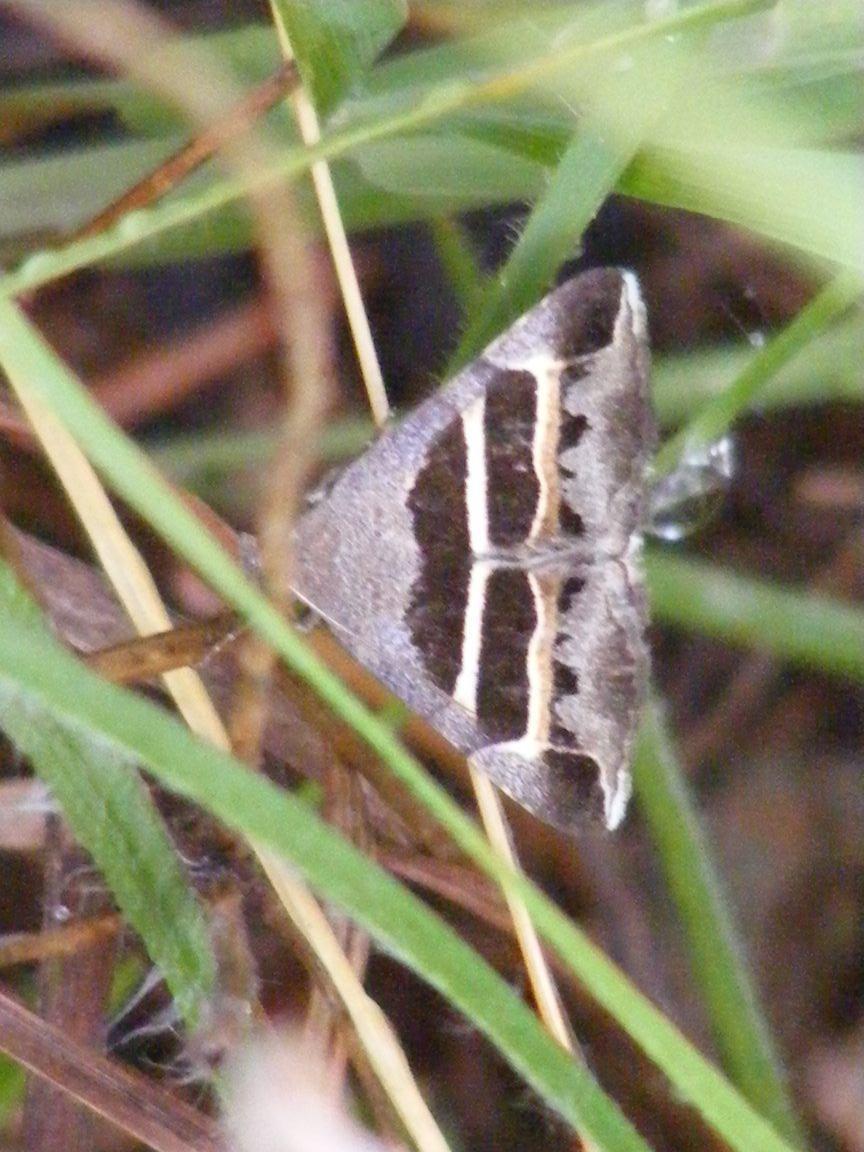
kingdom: Animalia
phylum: Arthropoda
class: Insecta
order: Lepidoptera
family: Erebidae
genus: Grammodes
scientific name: Grammodes exclusiva
